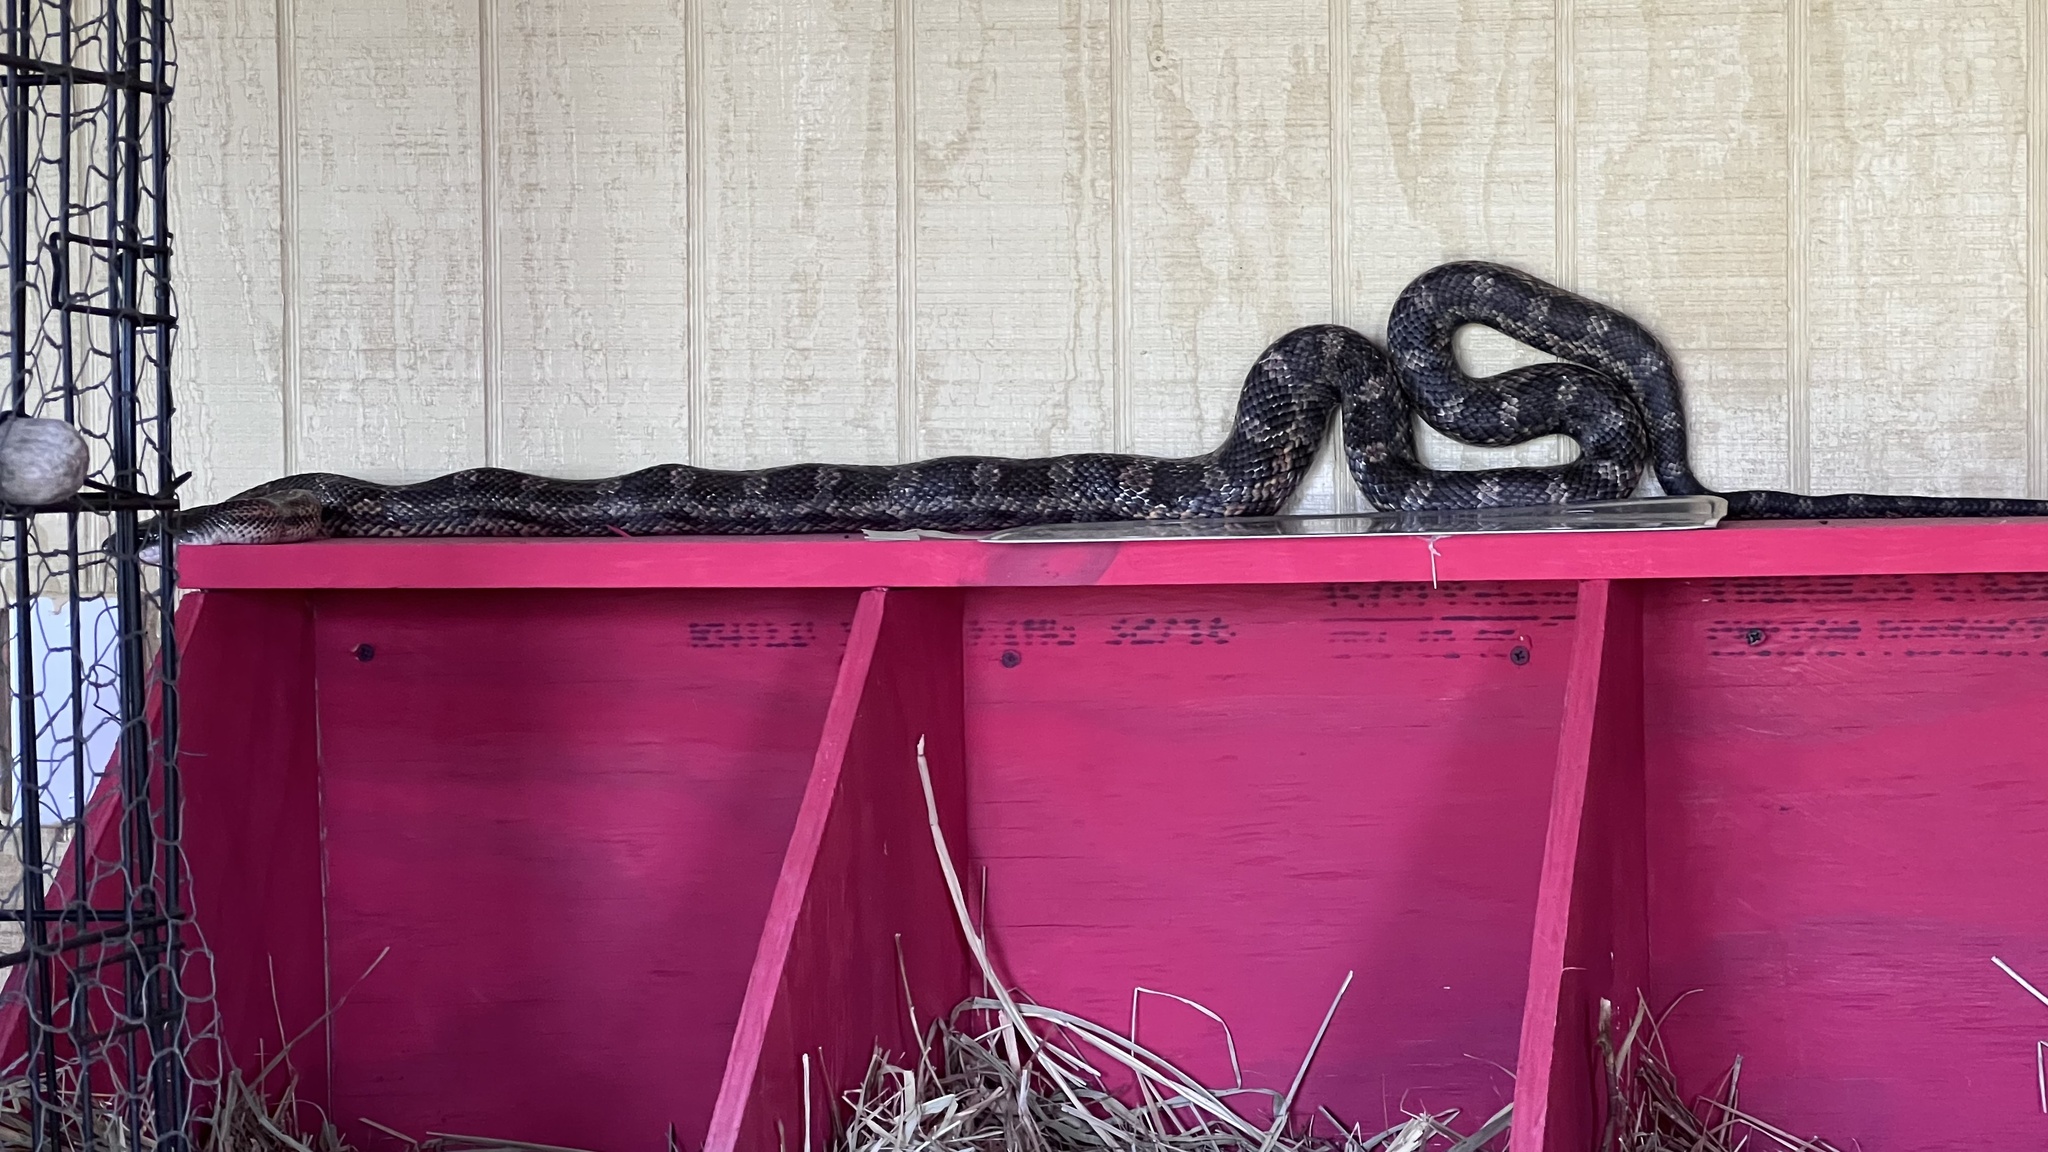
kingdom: Animalia
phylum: Chordata
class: Squamata
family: Colubridae
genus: Pantherophis
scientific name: Pantherophis obsoletus
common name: Black rat snake
